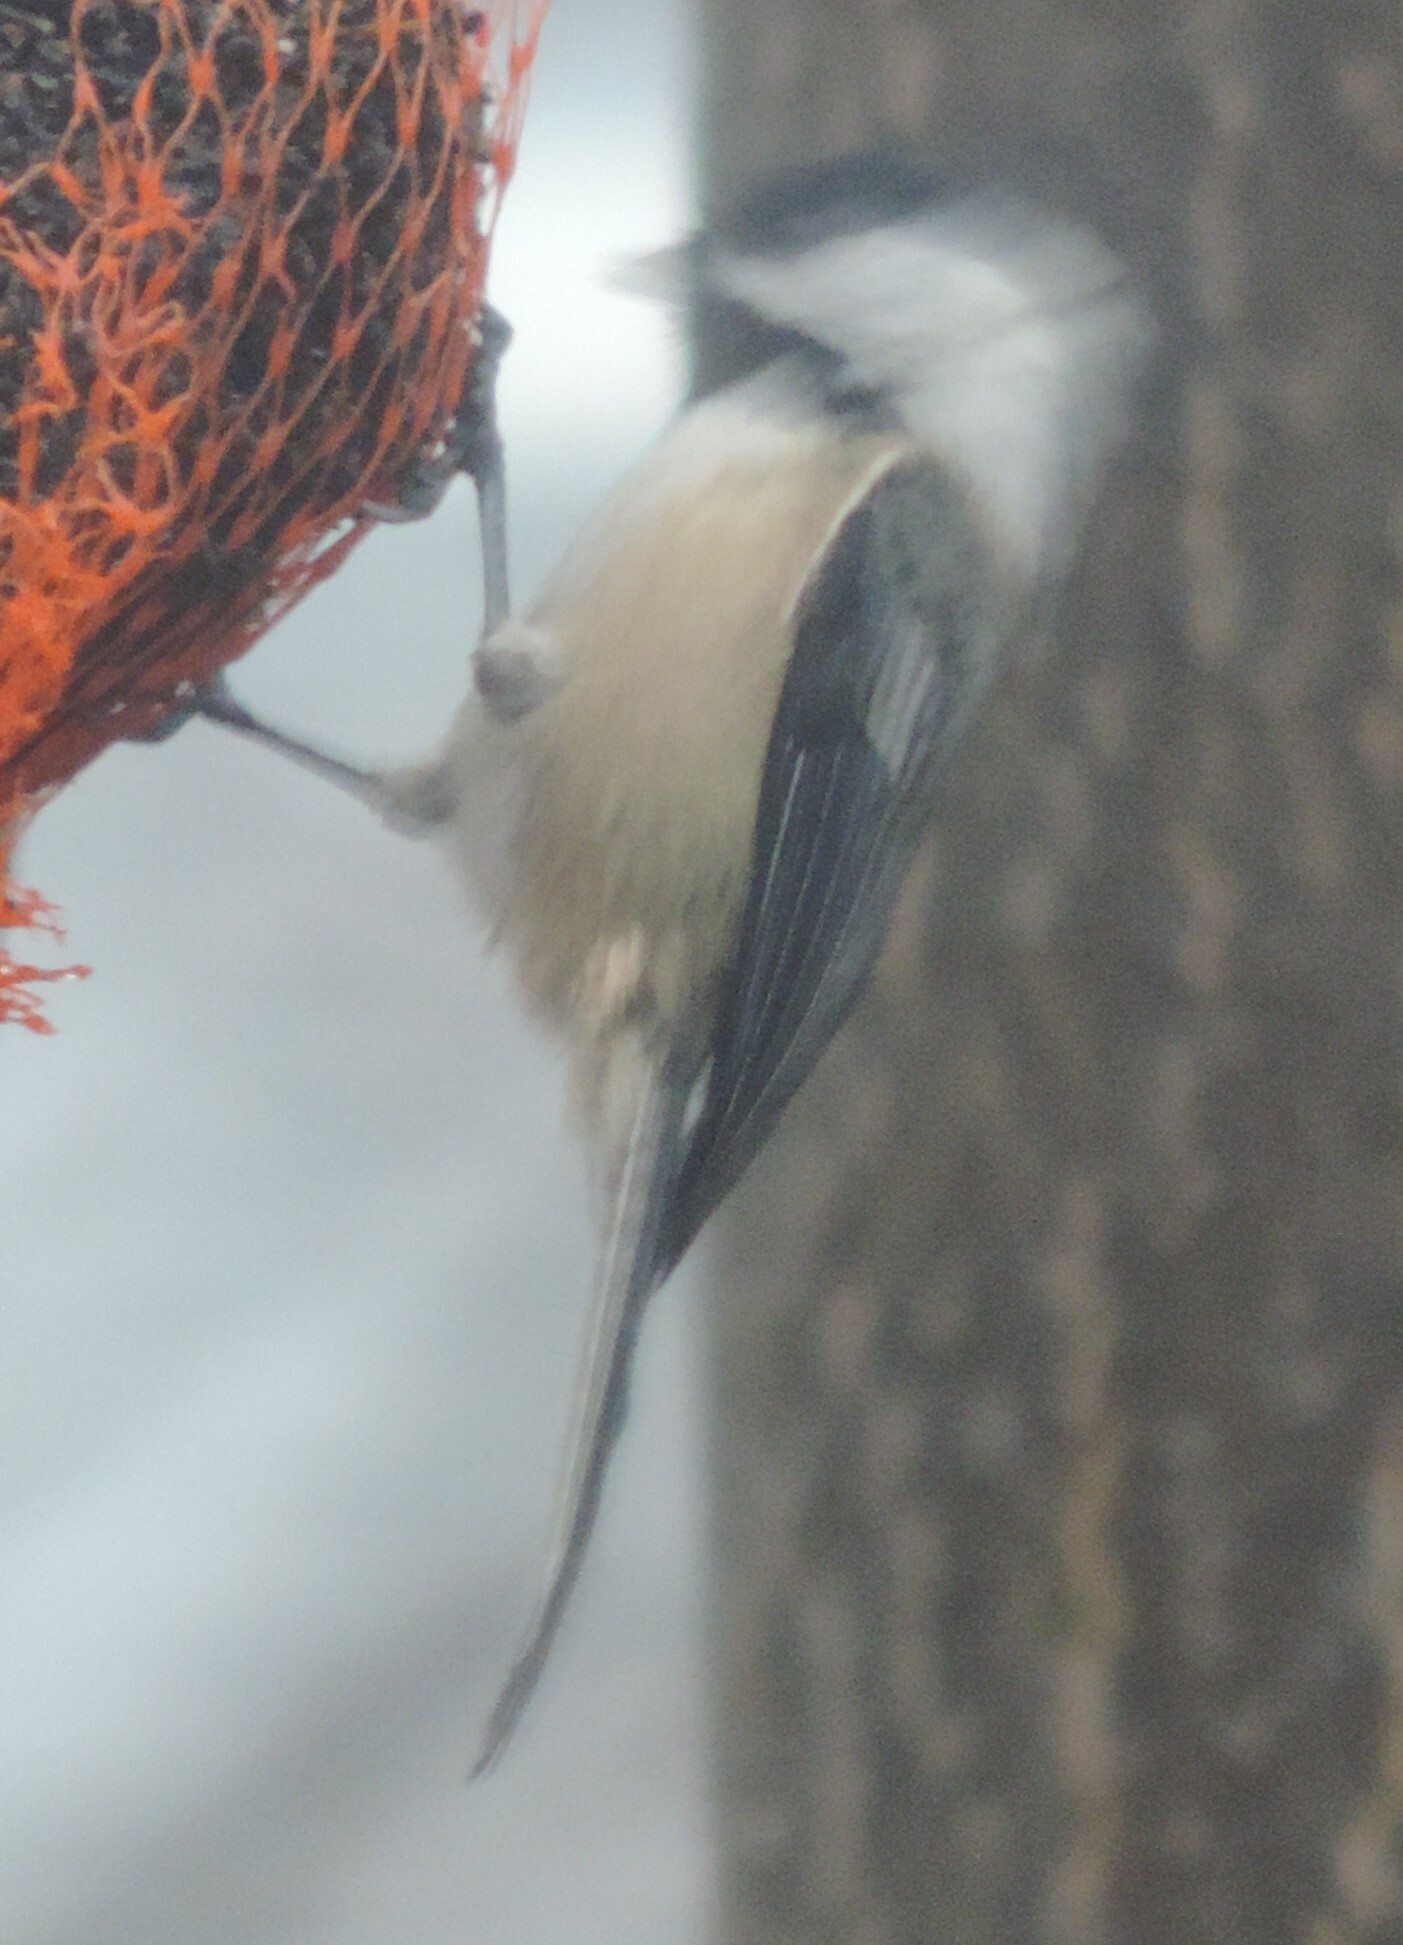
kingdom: Animalia
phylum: Chordata
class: Aves
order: Passeriformes
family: Paridae
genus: Poecile
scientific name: Poecile atricapillus
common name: Black-capped chickadee
